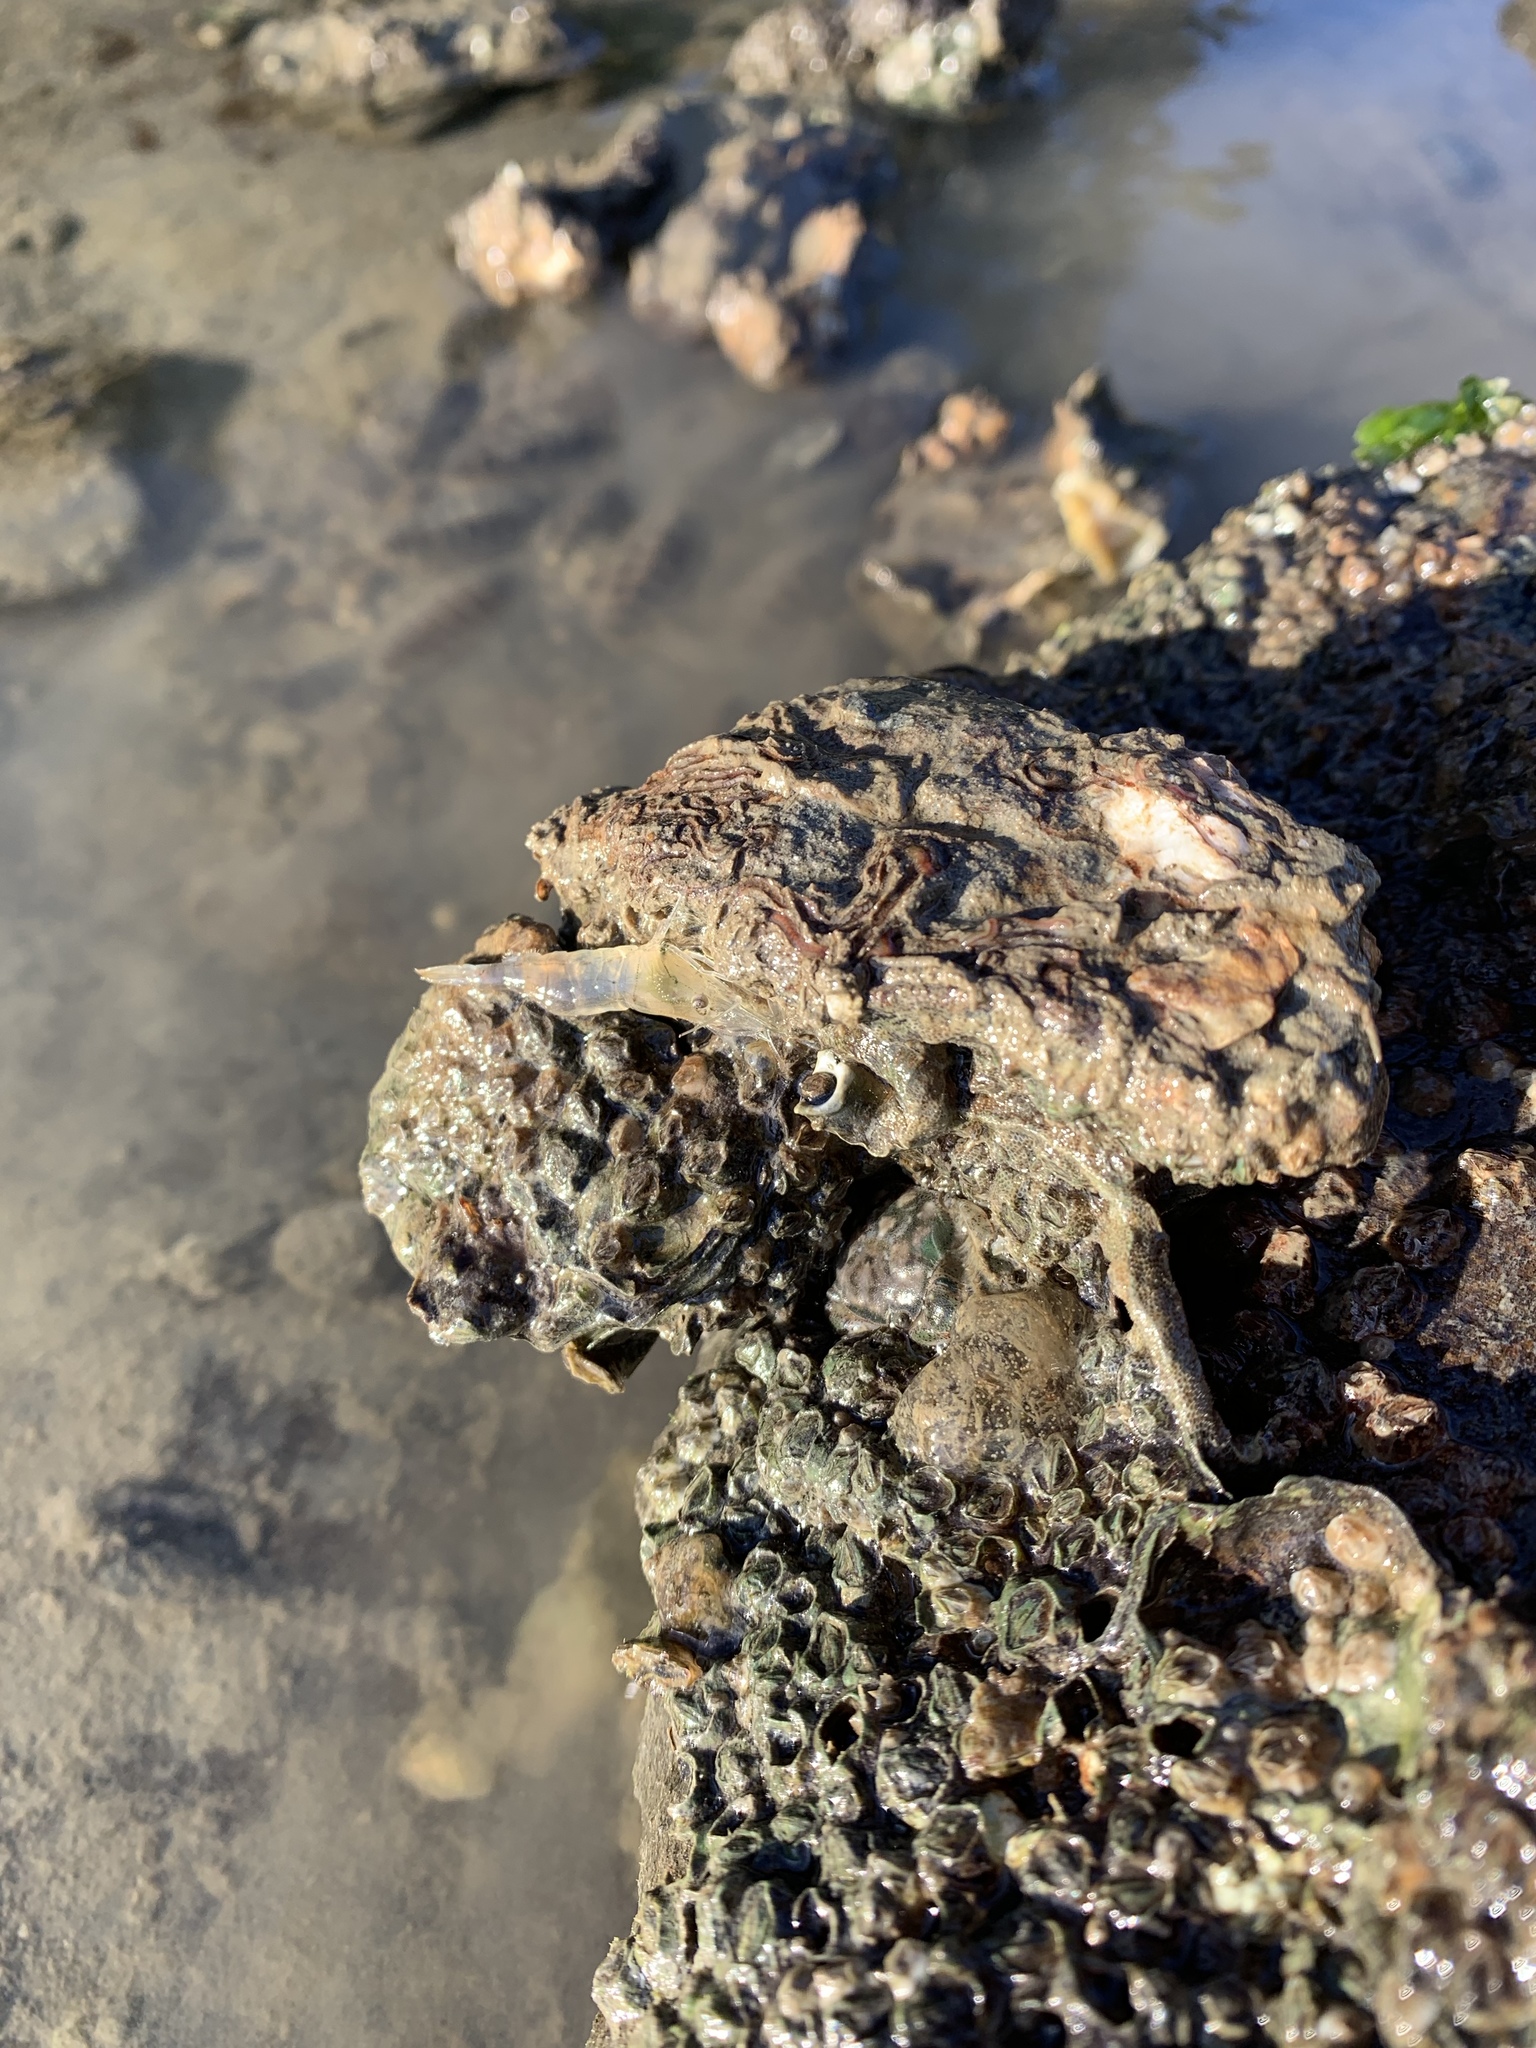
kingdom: Animalia
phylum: Arthropoda
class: Malacostraca
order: Decapoda
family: Palaemonidae
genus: Palaemon
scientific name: Palaemon affinis
